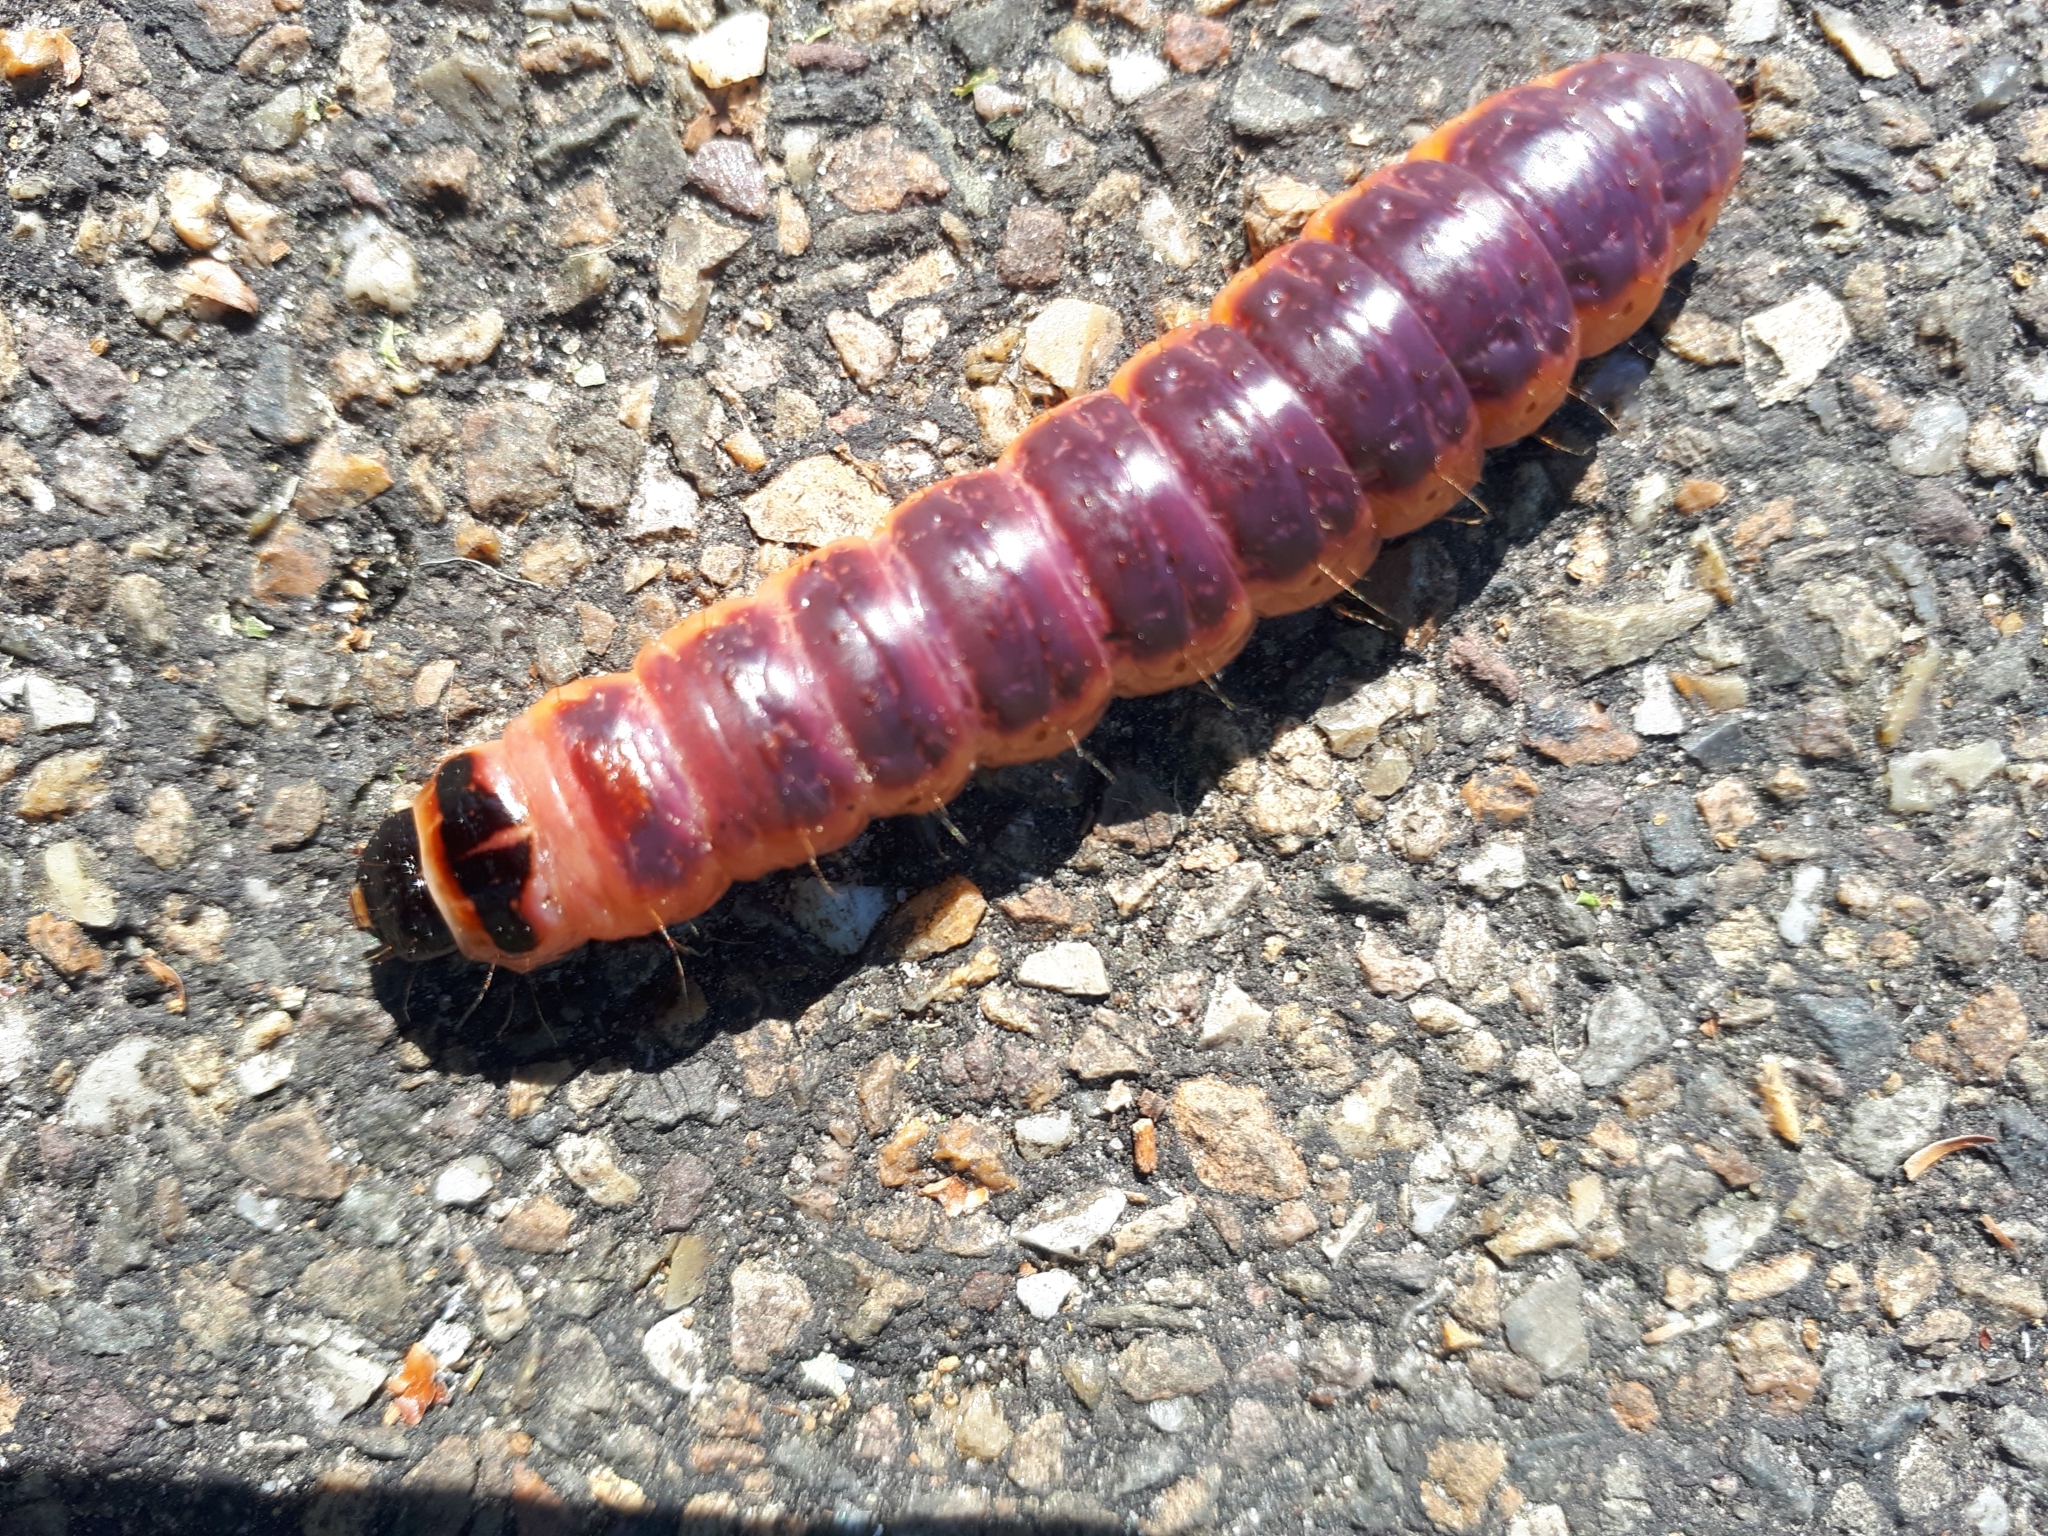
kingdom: Animalia
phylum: Arthropoda
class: Insecta
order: Lepidoptera
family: Cossidae
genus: Cossus
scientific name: Cossus cossus
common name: Goat moth
